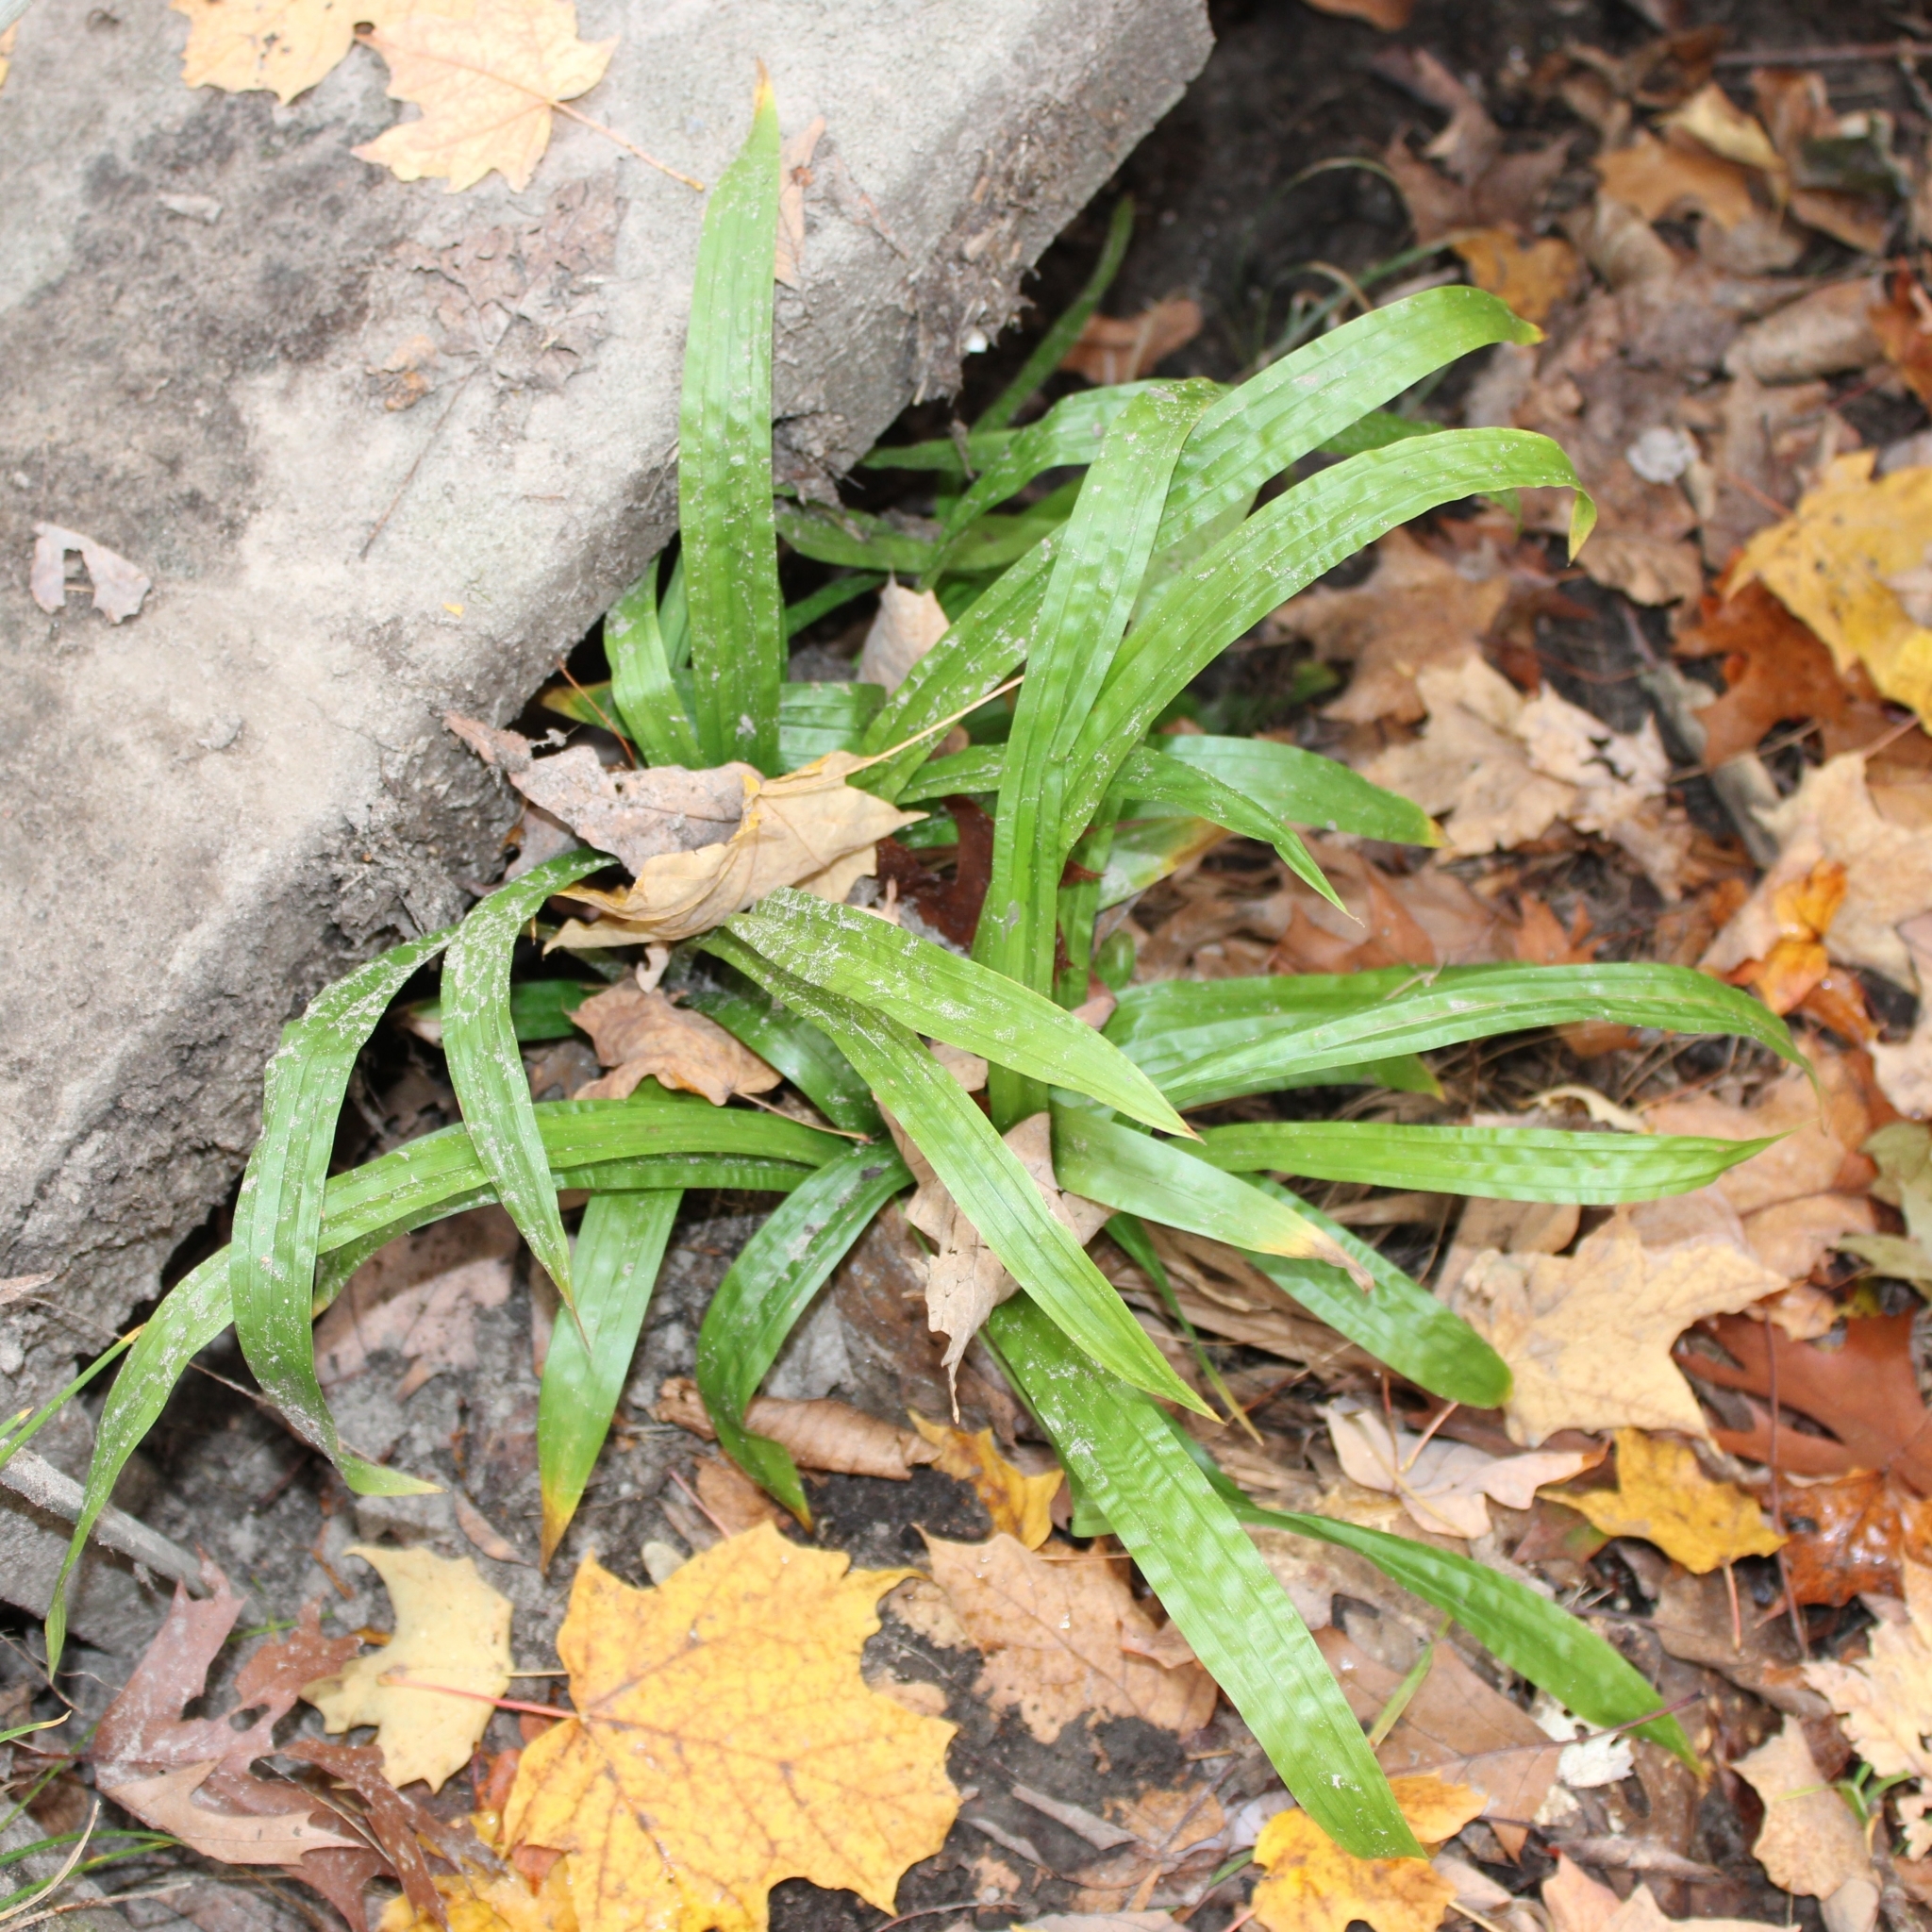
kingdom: Plantae
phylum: Tracheophyta
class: Liliopsida
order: Poales
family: Cyperaceae
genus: Carex
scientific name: Carex plantaginea
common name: Plantain-leaved sedge
